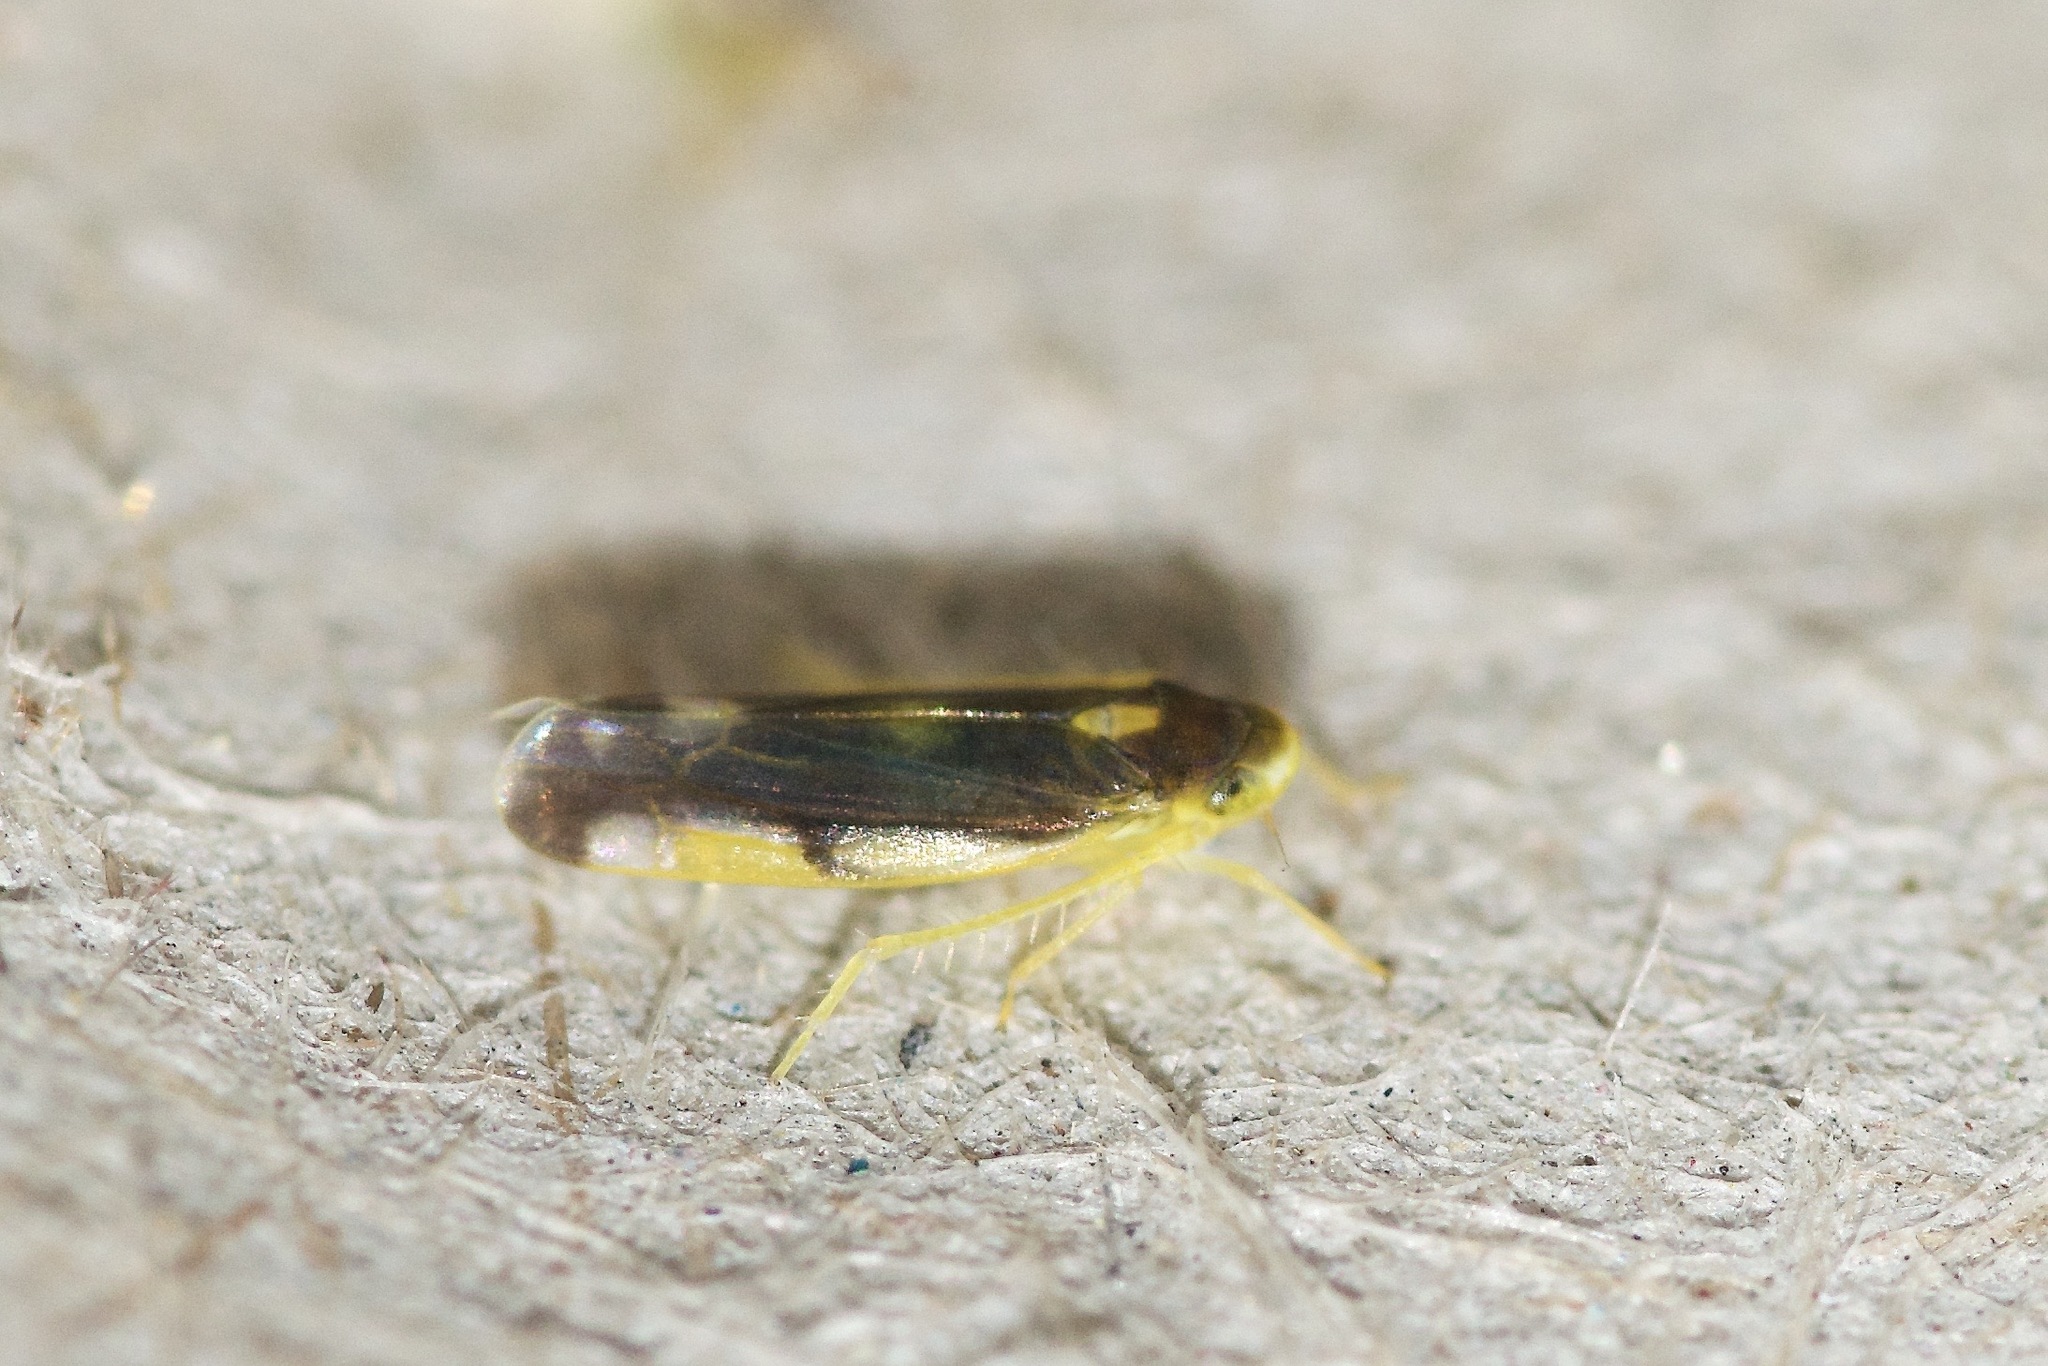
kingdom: Animalia
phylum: Arthropoda
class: Insecta
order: Hemiptera
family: Cicadellidae
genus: Eupteryx
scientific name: Eupteryx flavoscuta
